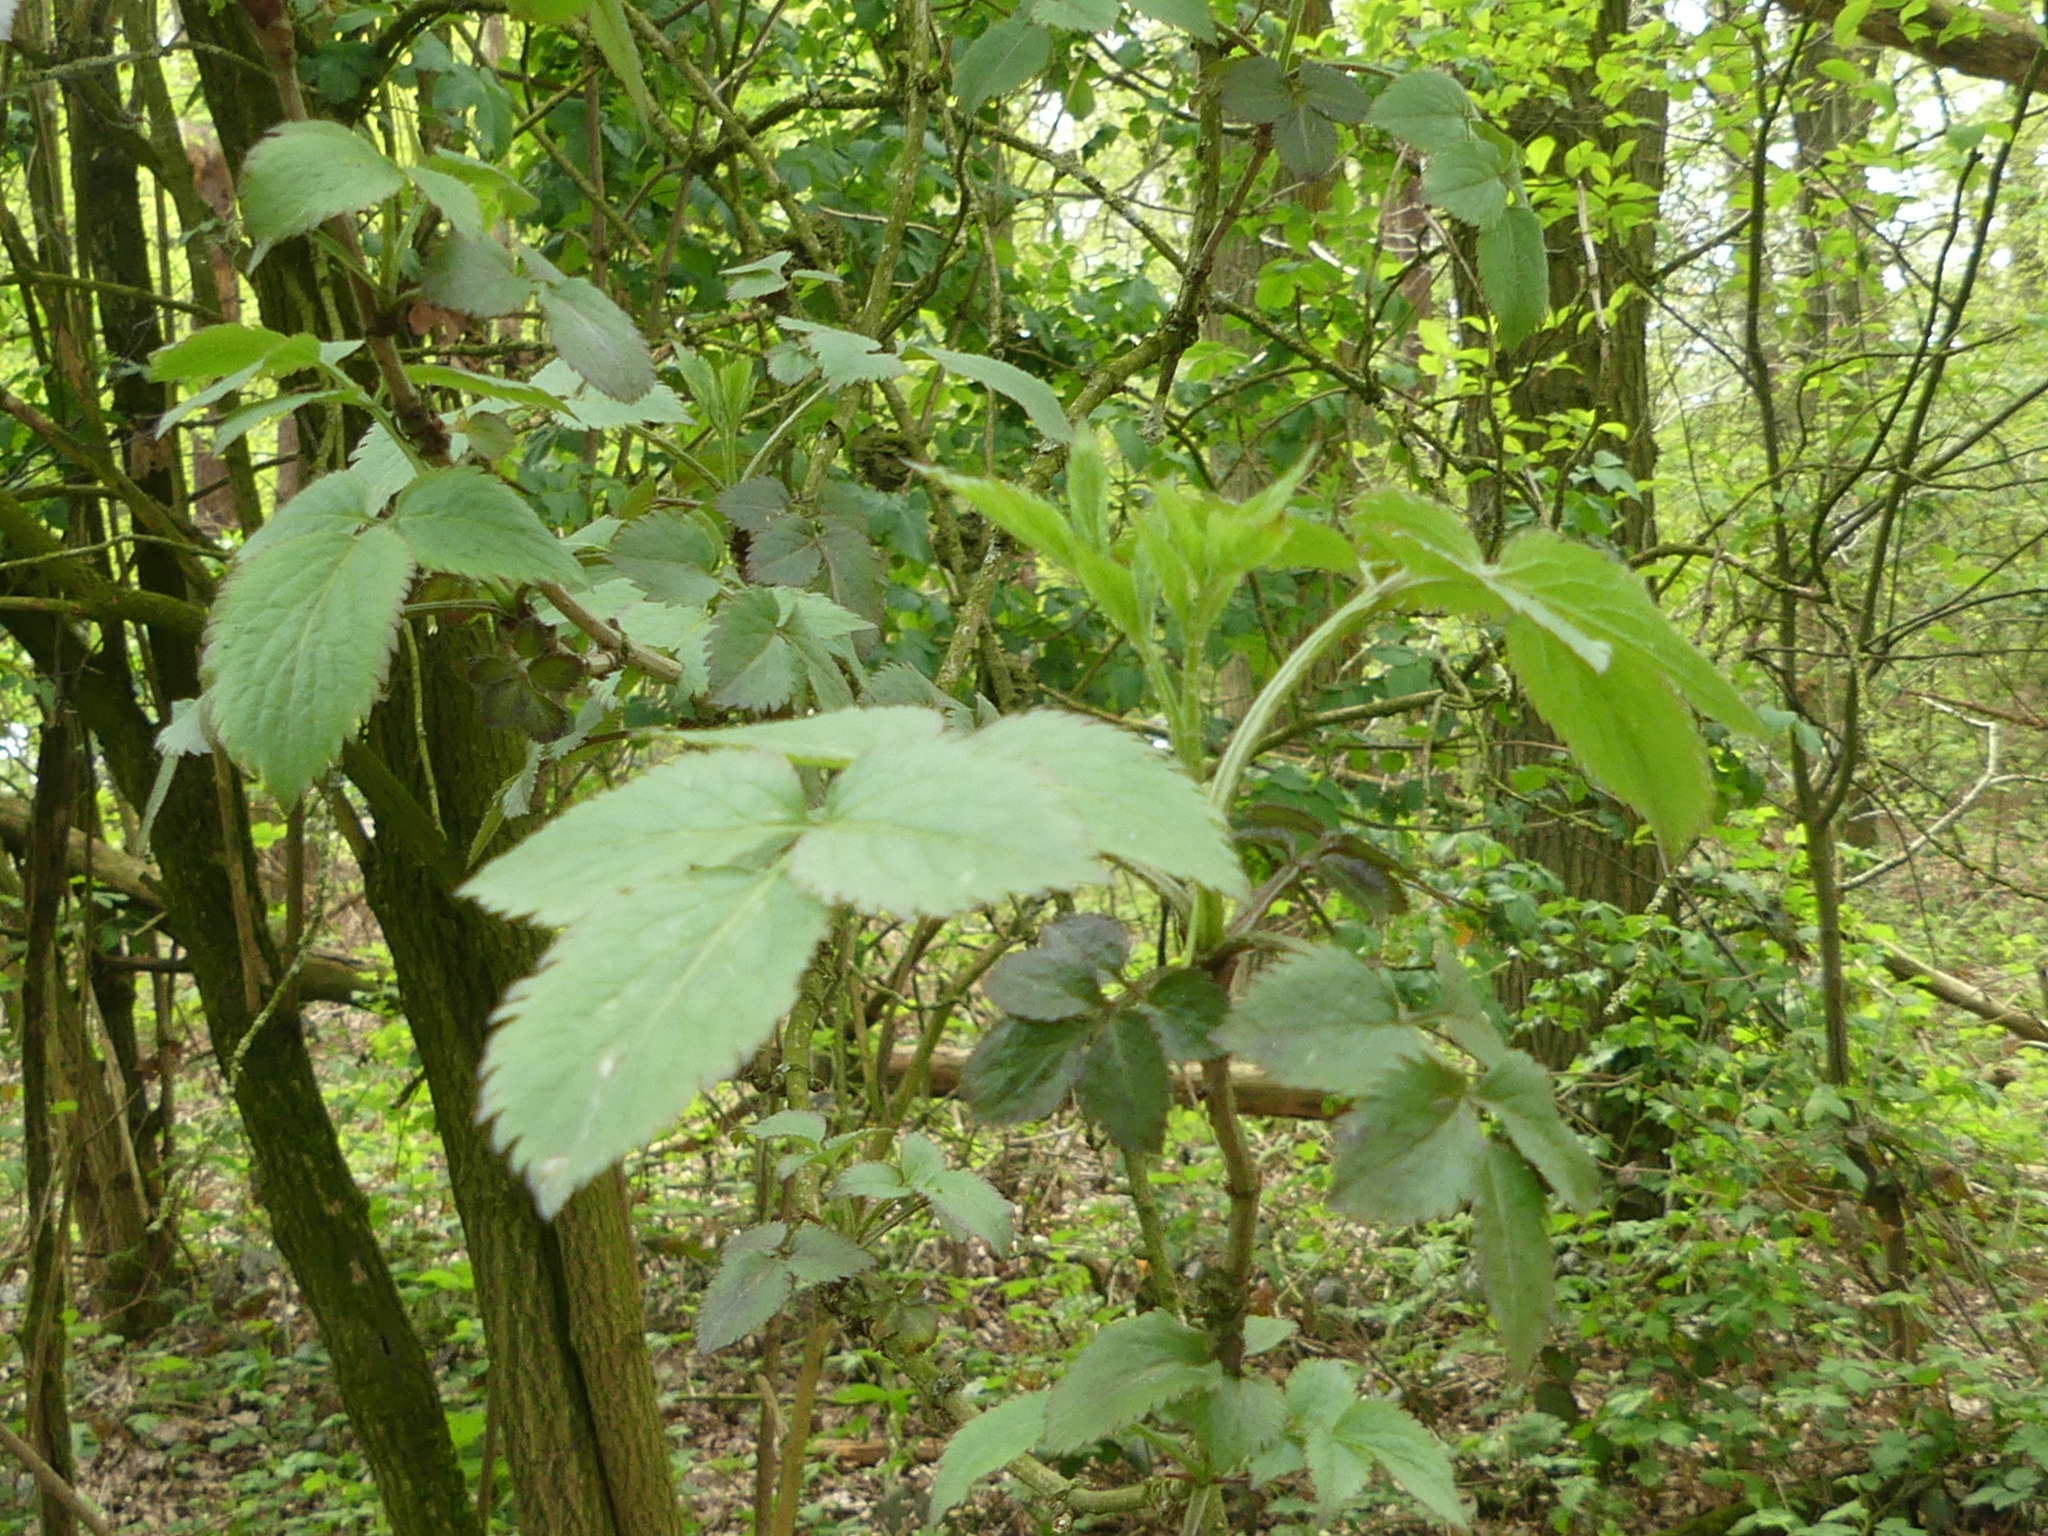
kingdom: Plantae
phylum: Tracheophyta
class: Magnoliopsida
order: Rosales
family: Rosaceae
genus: Rubus
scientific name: Rubus
